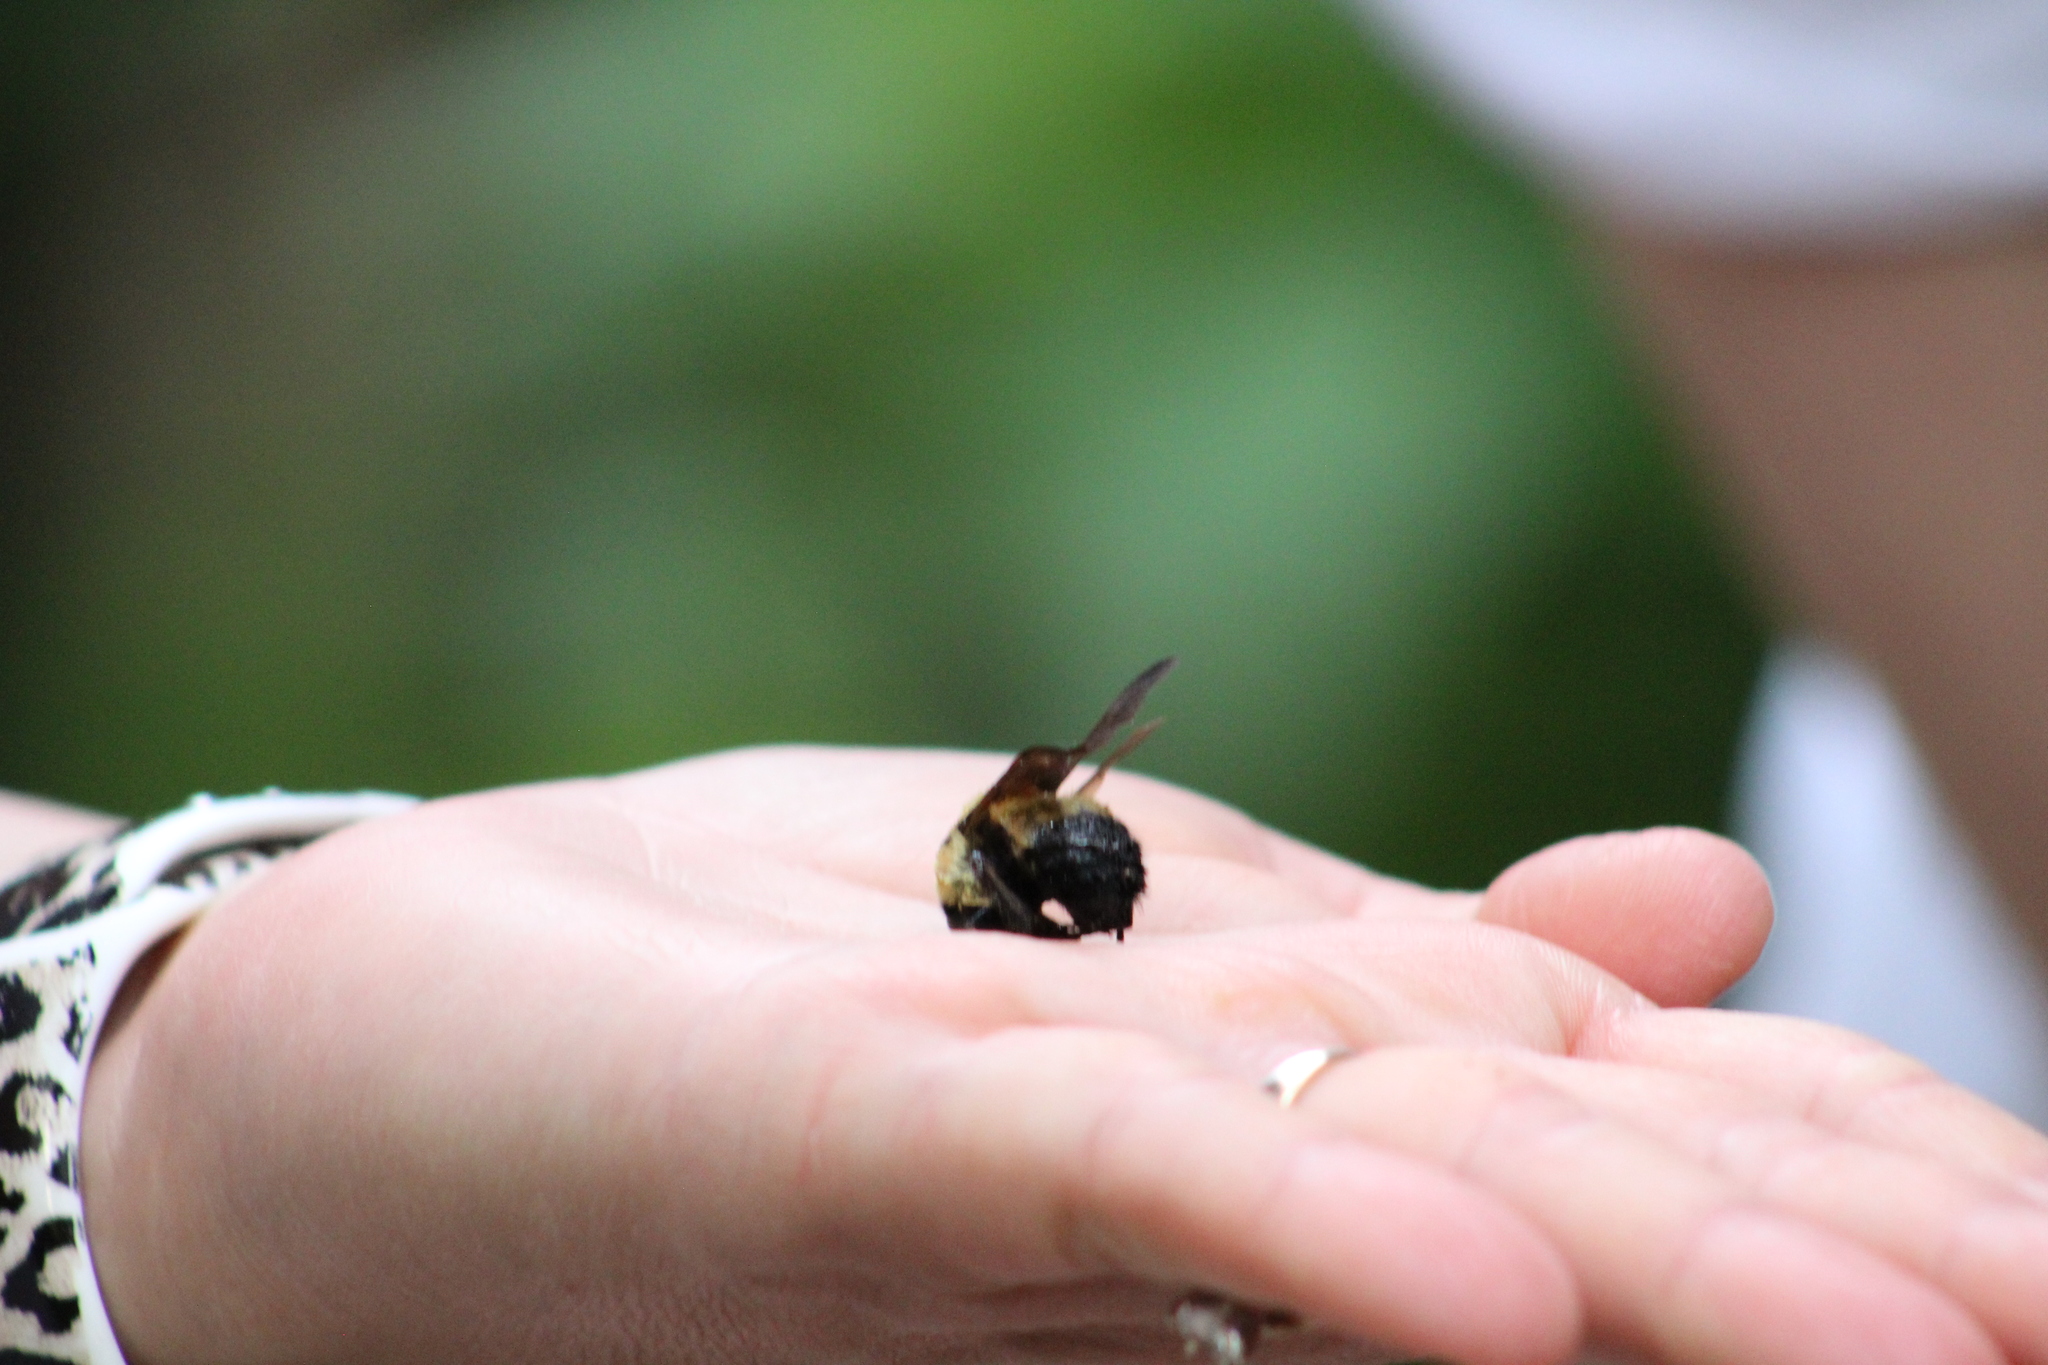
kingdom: Animalia
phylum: Arthropoda
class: Insecta
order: Hymenoptera
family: Apidae
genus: Bombus
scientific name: Bombus griseocollis
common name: Brown-belted bumble bee
